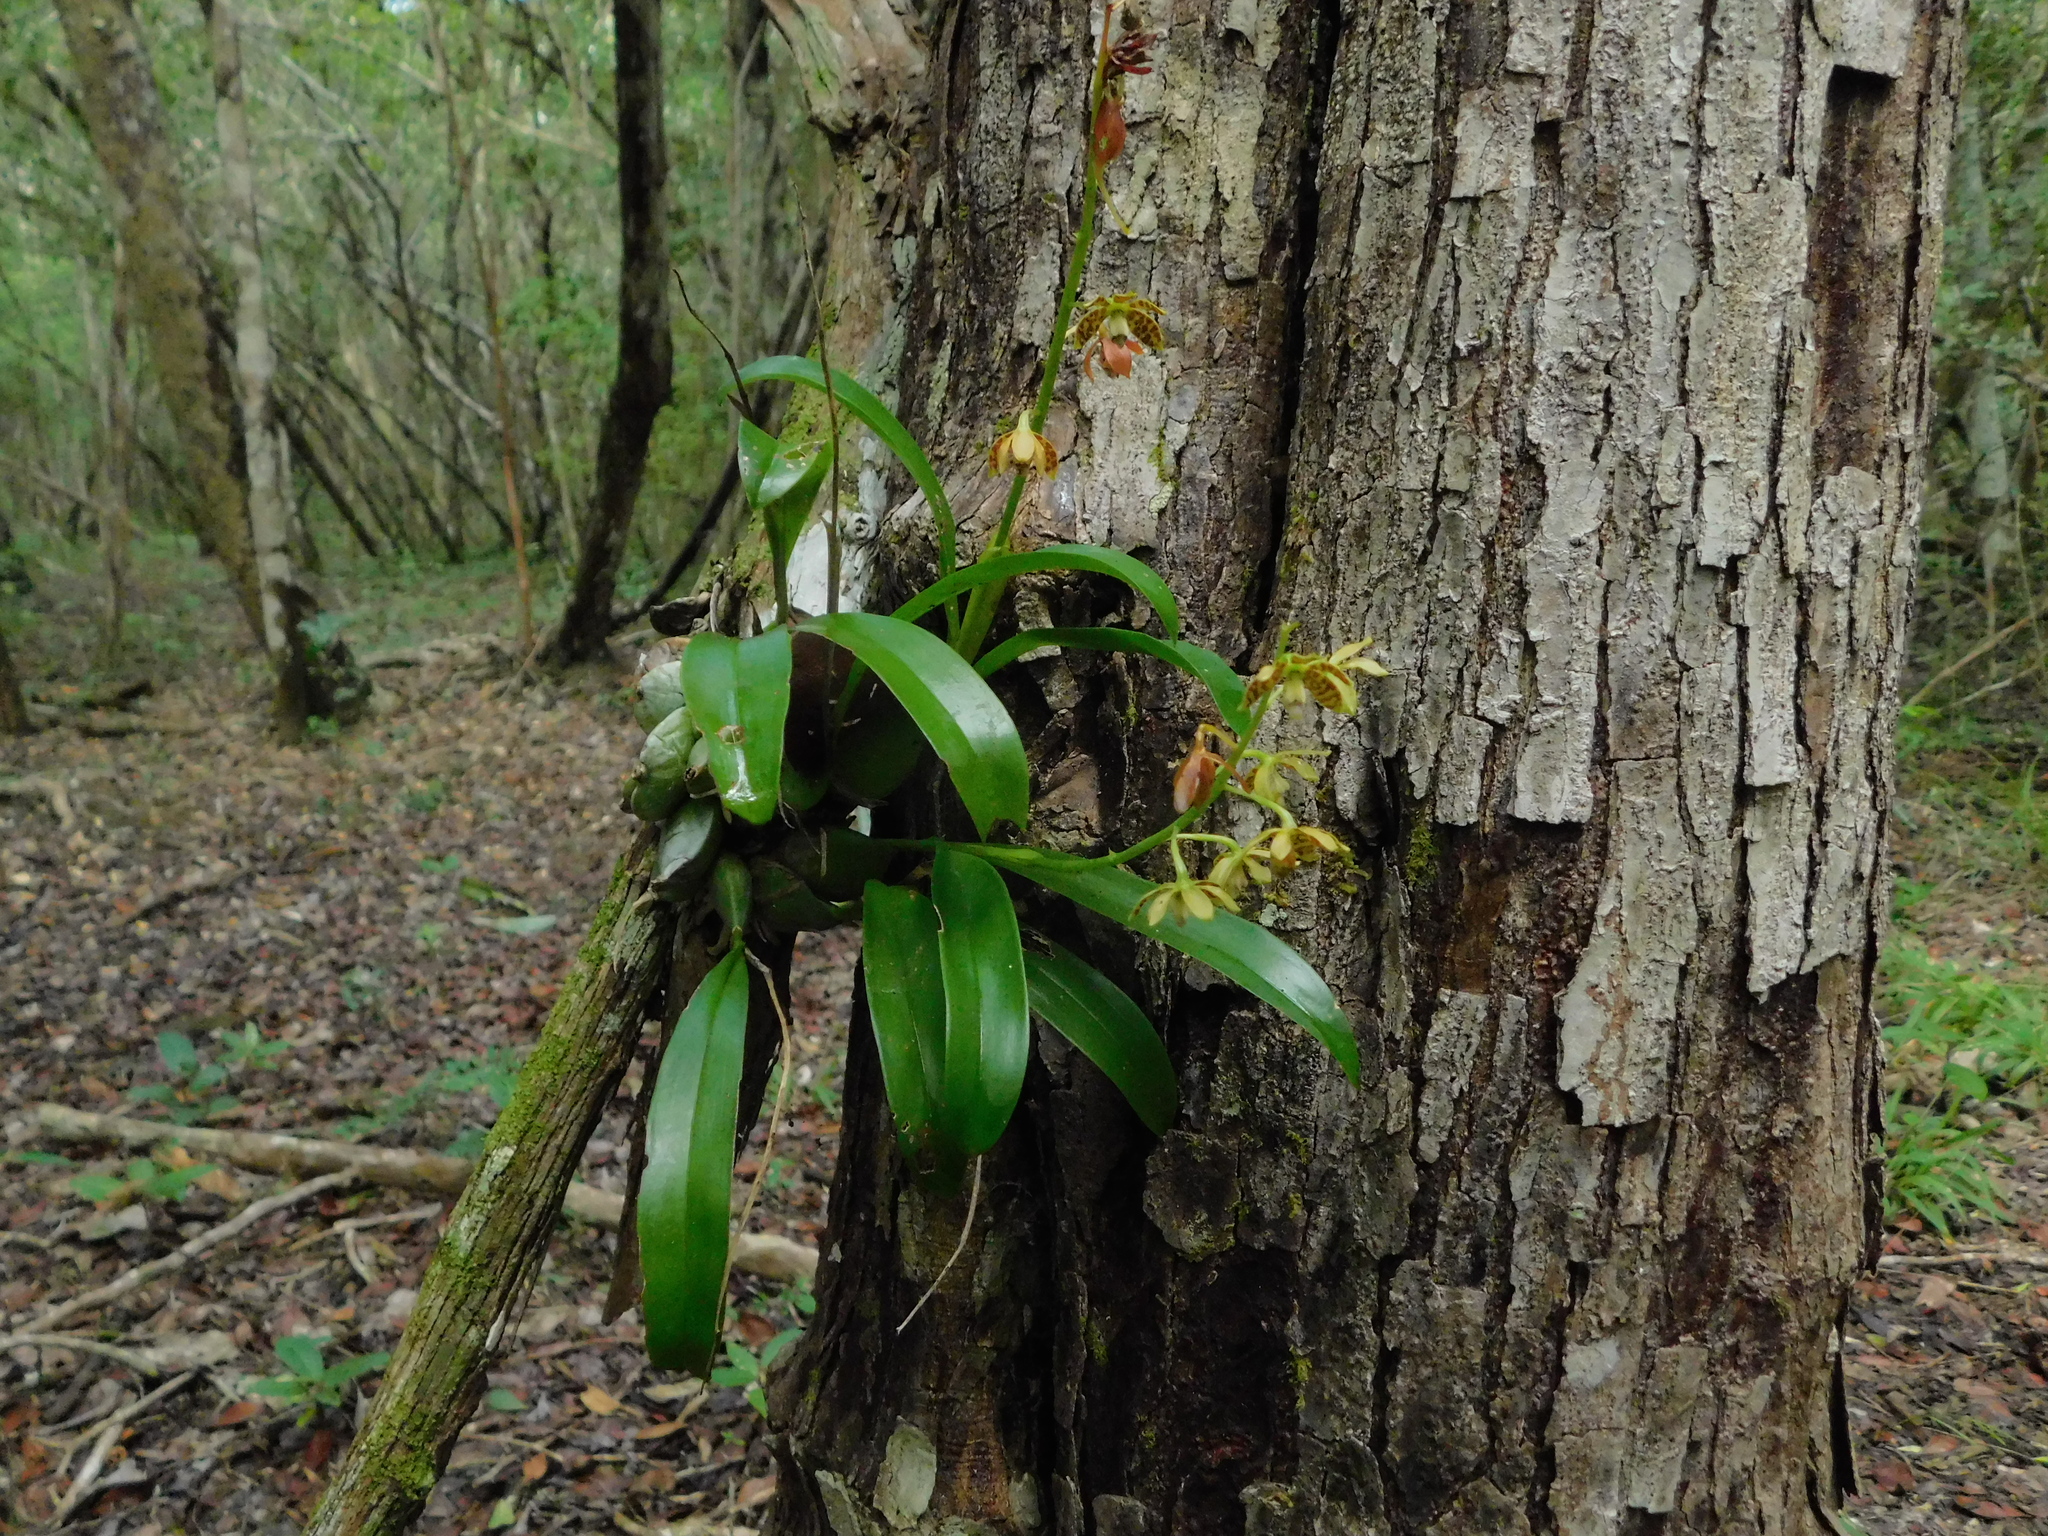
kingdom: Plantae
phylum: Tracheophyta
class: Liliopsida
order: Asparagales
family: Orchidaceae
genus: Prosthechea
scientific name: Prosthechea boothiana
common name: Dollar orchid
